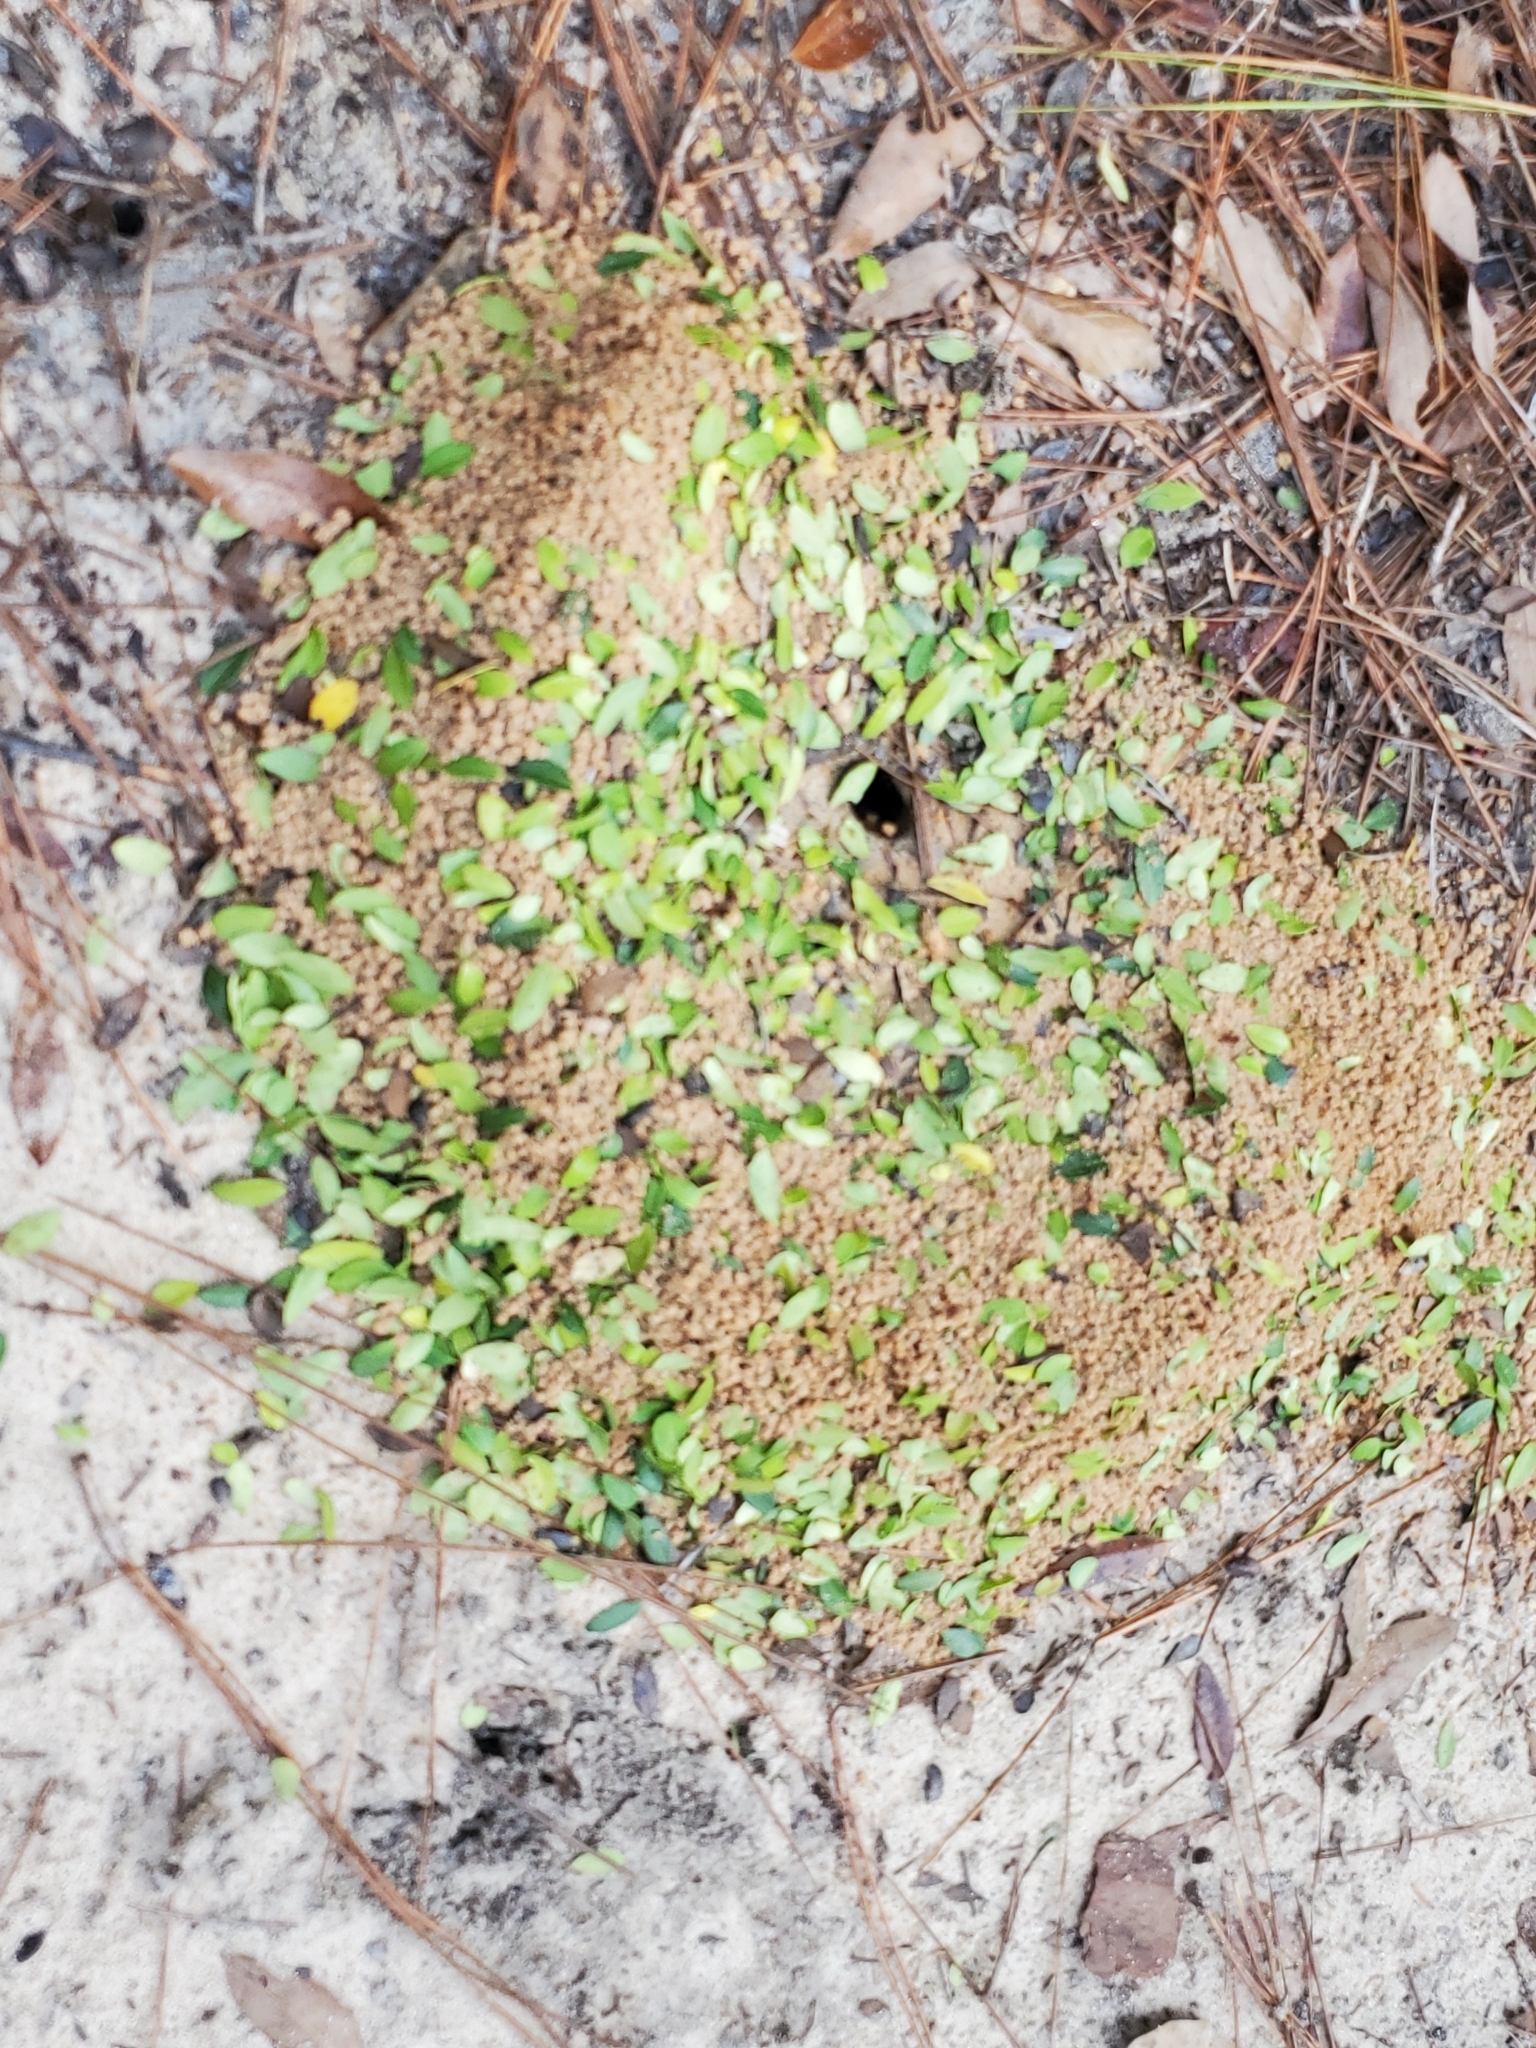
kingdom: Animalia
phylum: Arthropoda
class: Insecta
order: Hymenoptera
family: Formicidae
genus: Atta
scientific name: Atta texana
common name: Texas leafcutting ant
